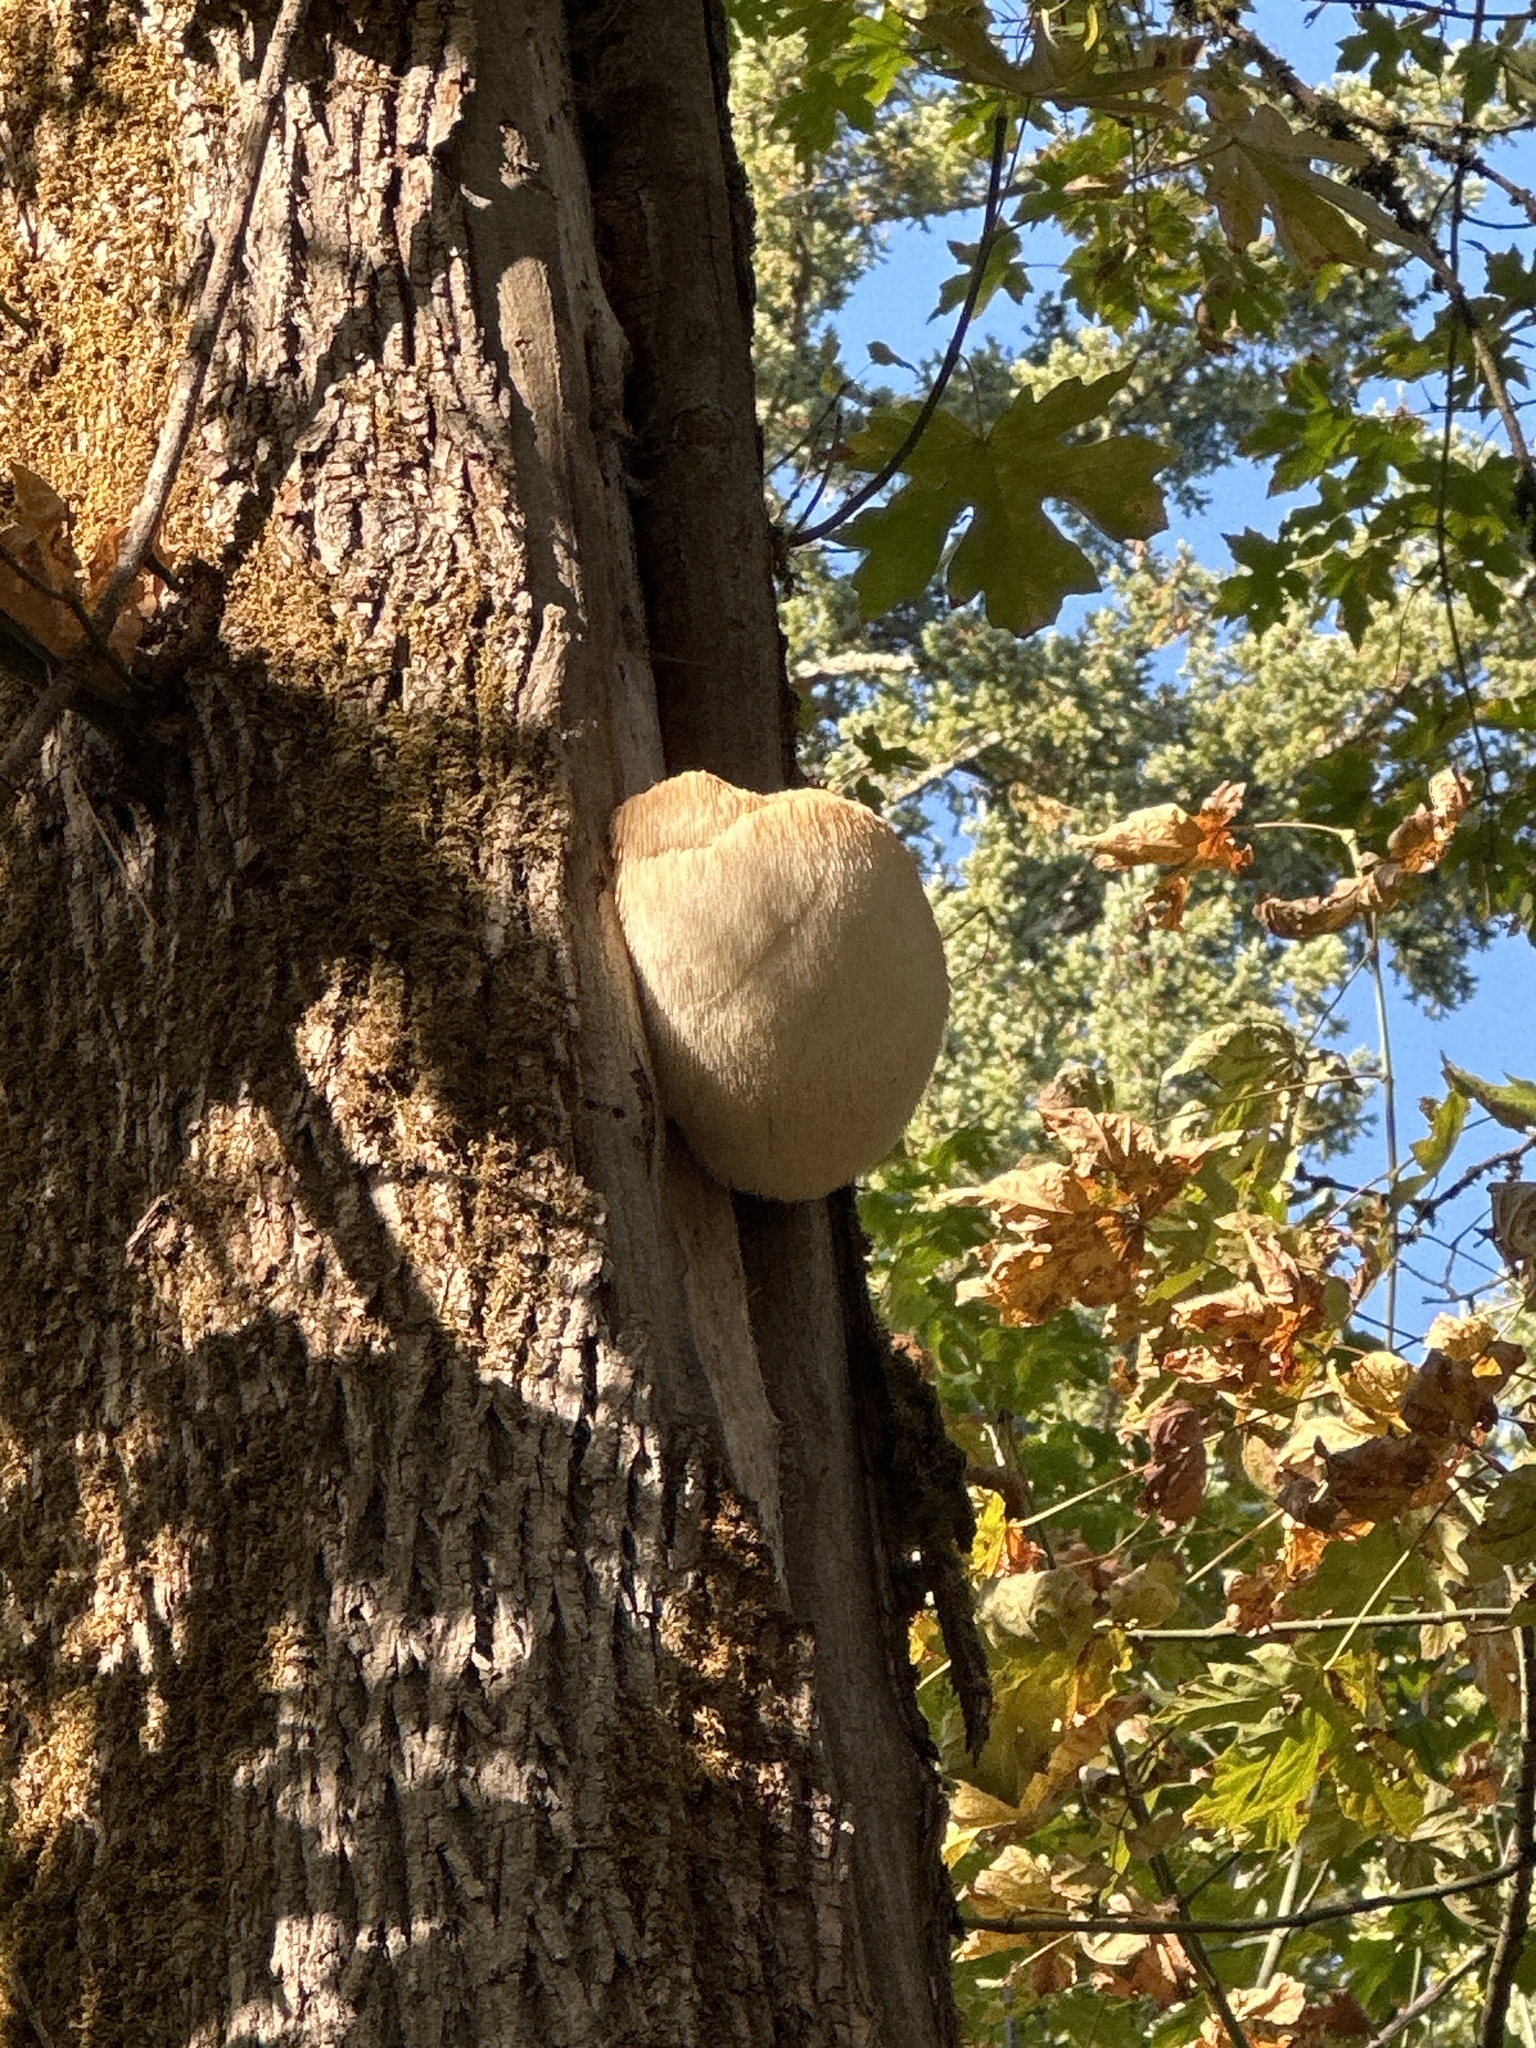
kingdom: Fungi
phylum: Basidiomycota
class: Agaricomycetes
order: Russulales
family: Hericiaceae
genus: Hericium
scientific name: Hericium erinaceus
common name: Bearded tooth
